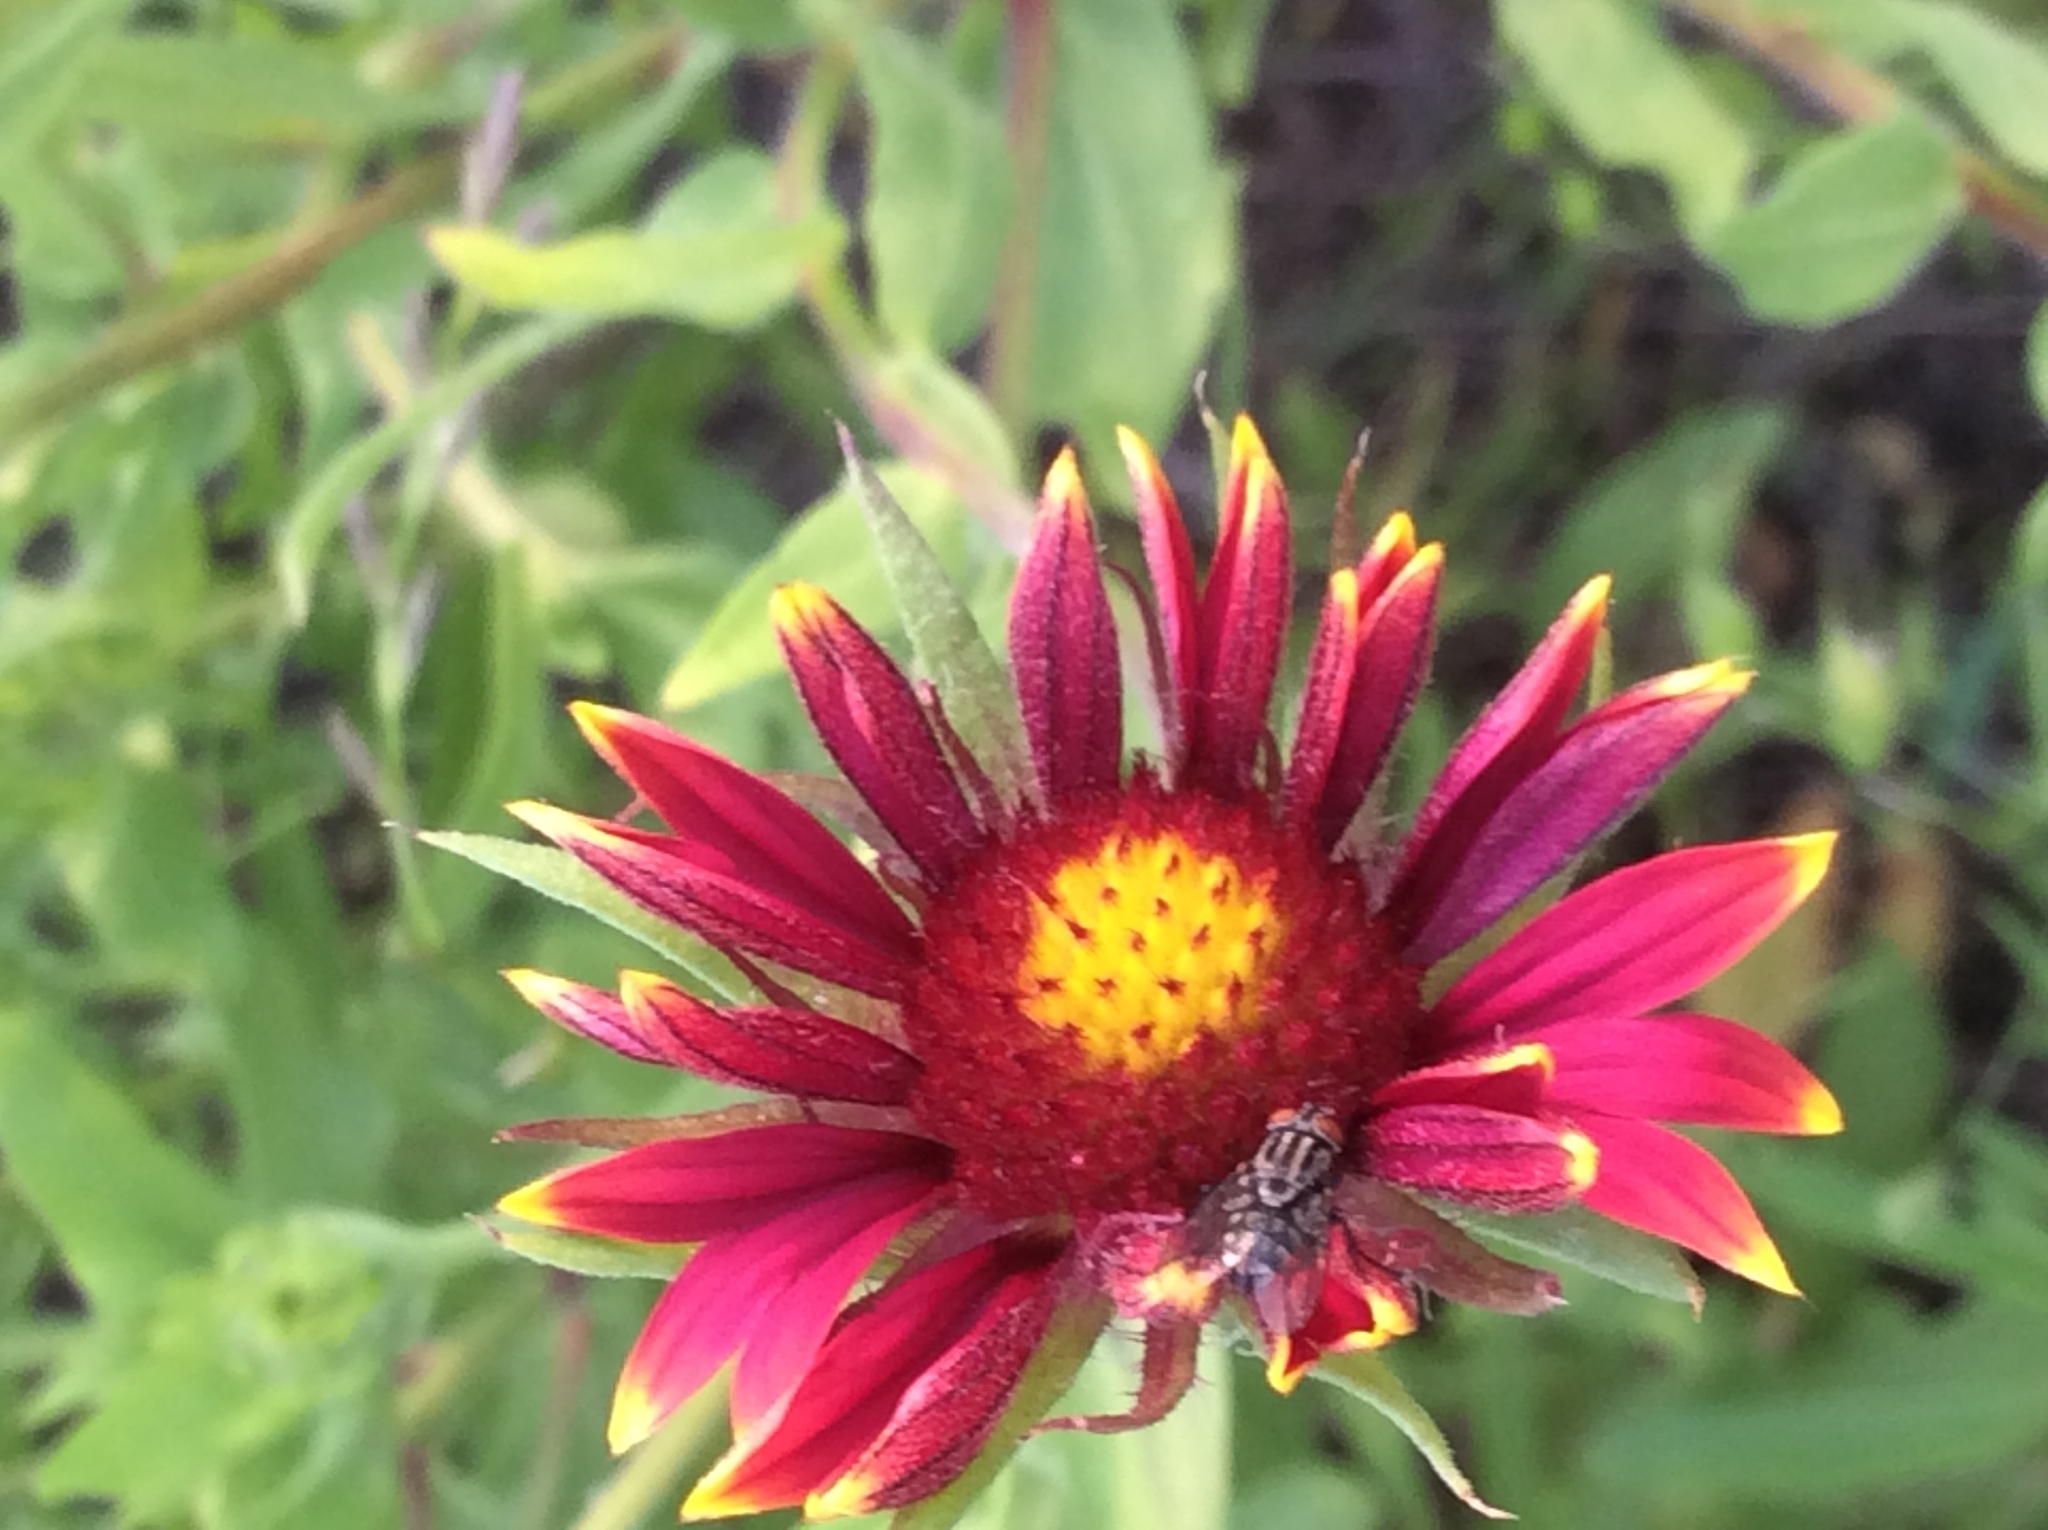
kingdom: Plantae
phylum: Tracheophyta
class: Magnoliopsida
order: Asterales
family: Asteraceae
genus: Gaillardia
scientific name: Gaillardia pulchella
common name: Firewheel
